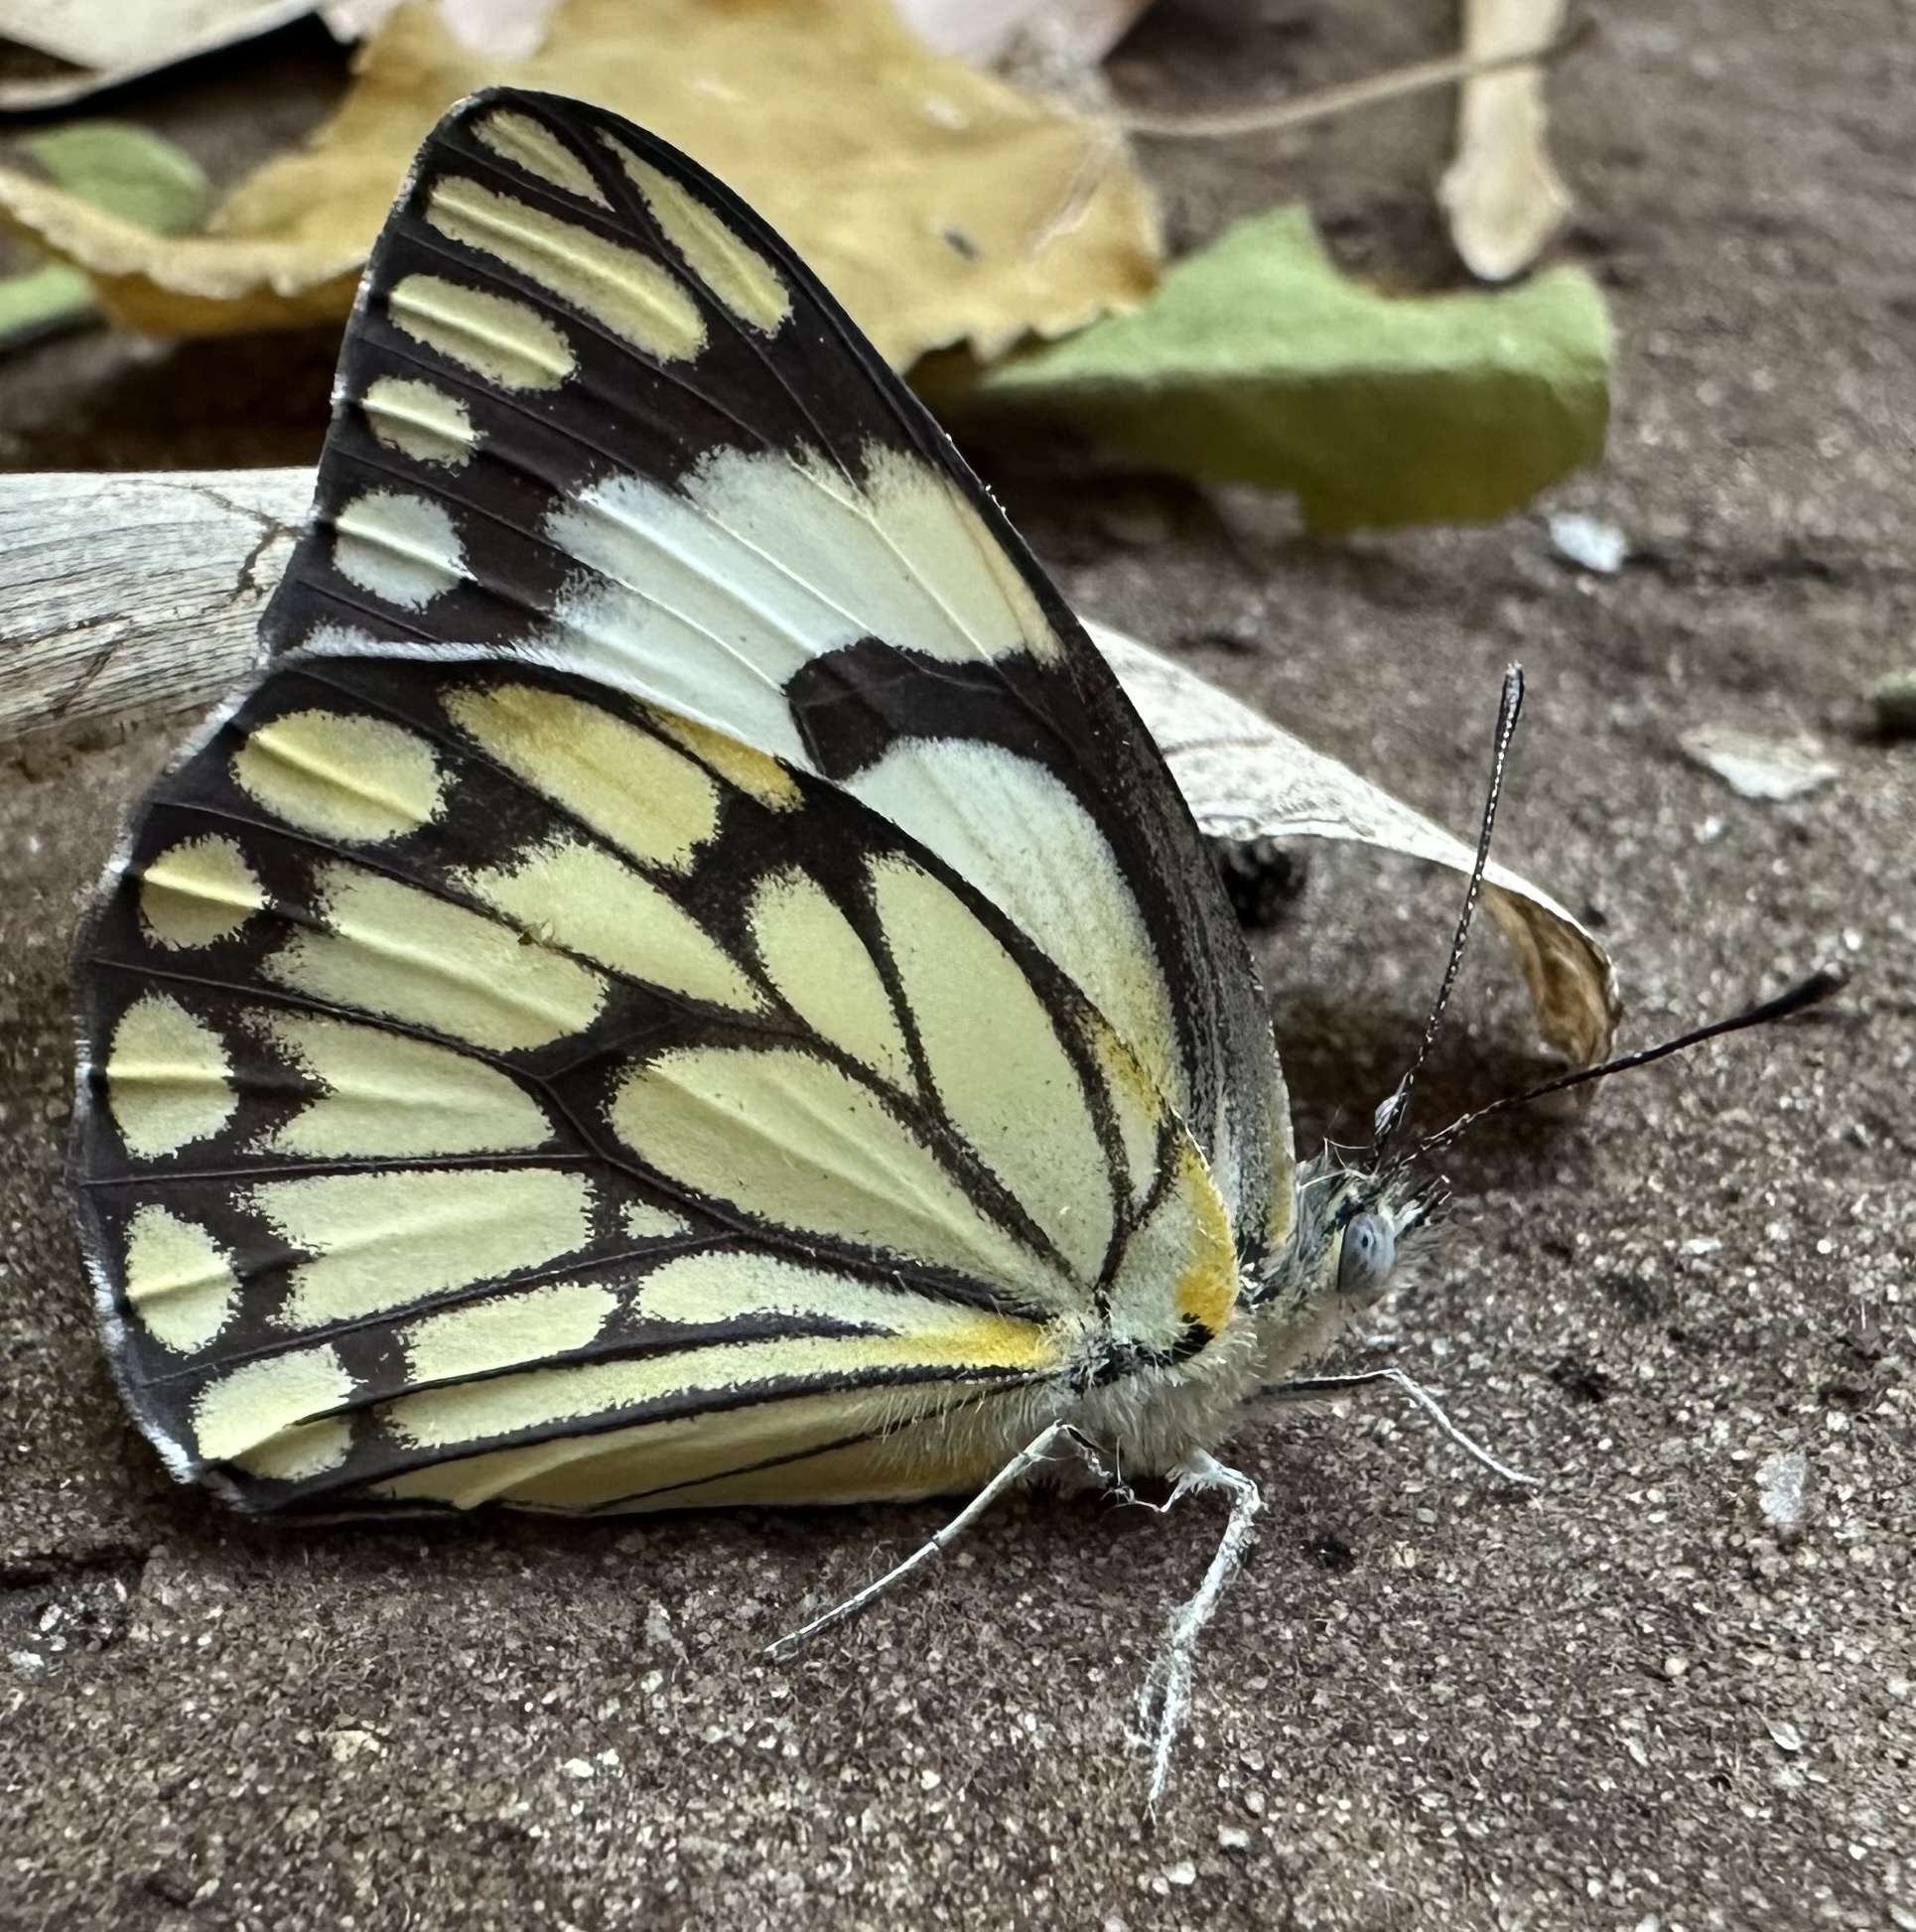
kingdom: Animalia
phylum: Arthropoda
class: Insecta
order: Lepidoptera
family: Pieridae
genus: Belenois
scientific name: Belenois aurota
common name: Brown-veined white
